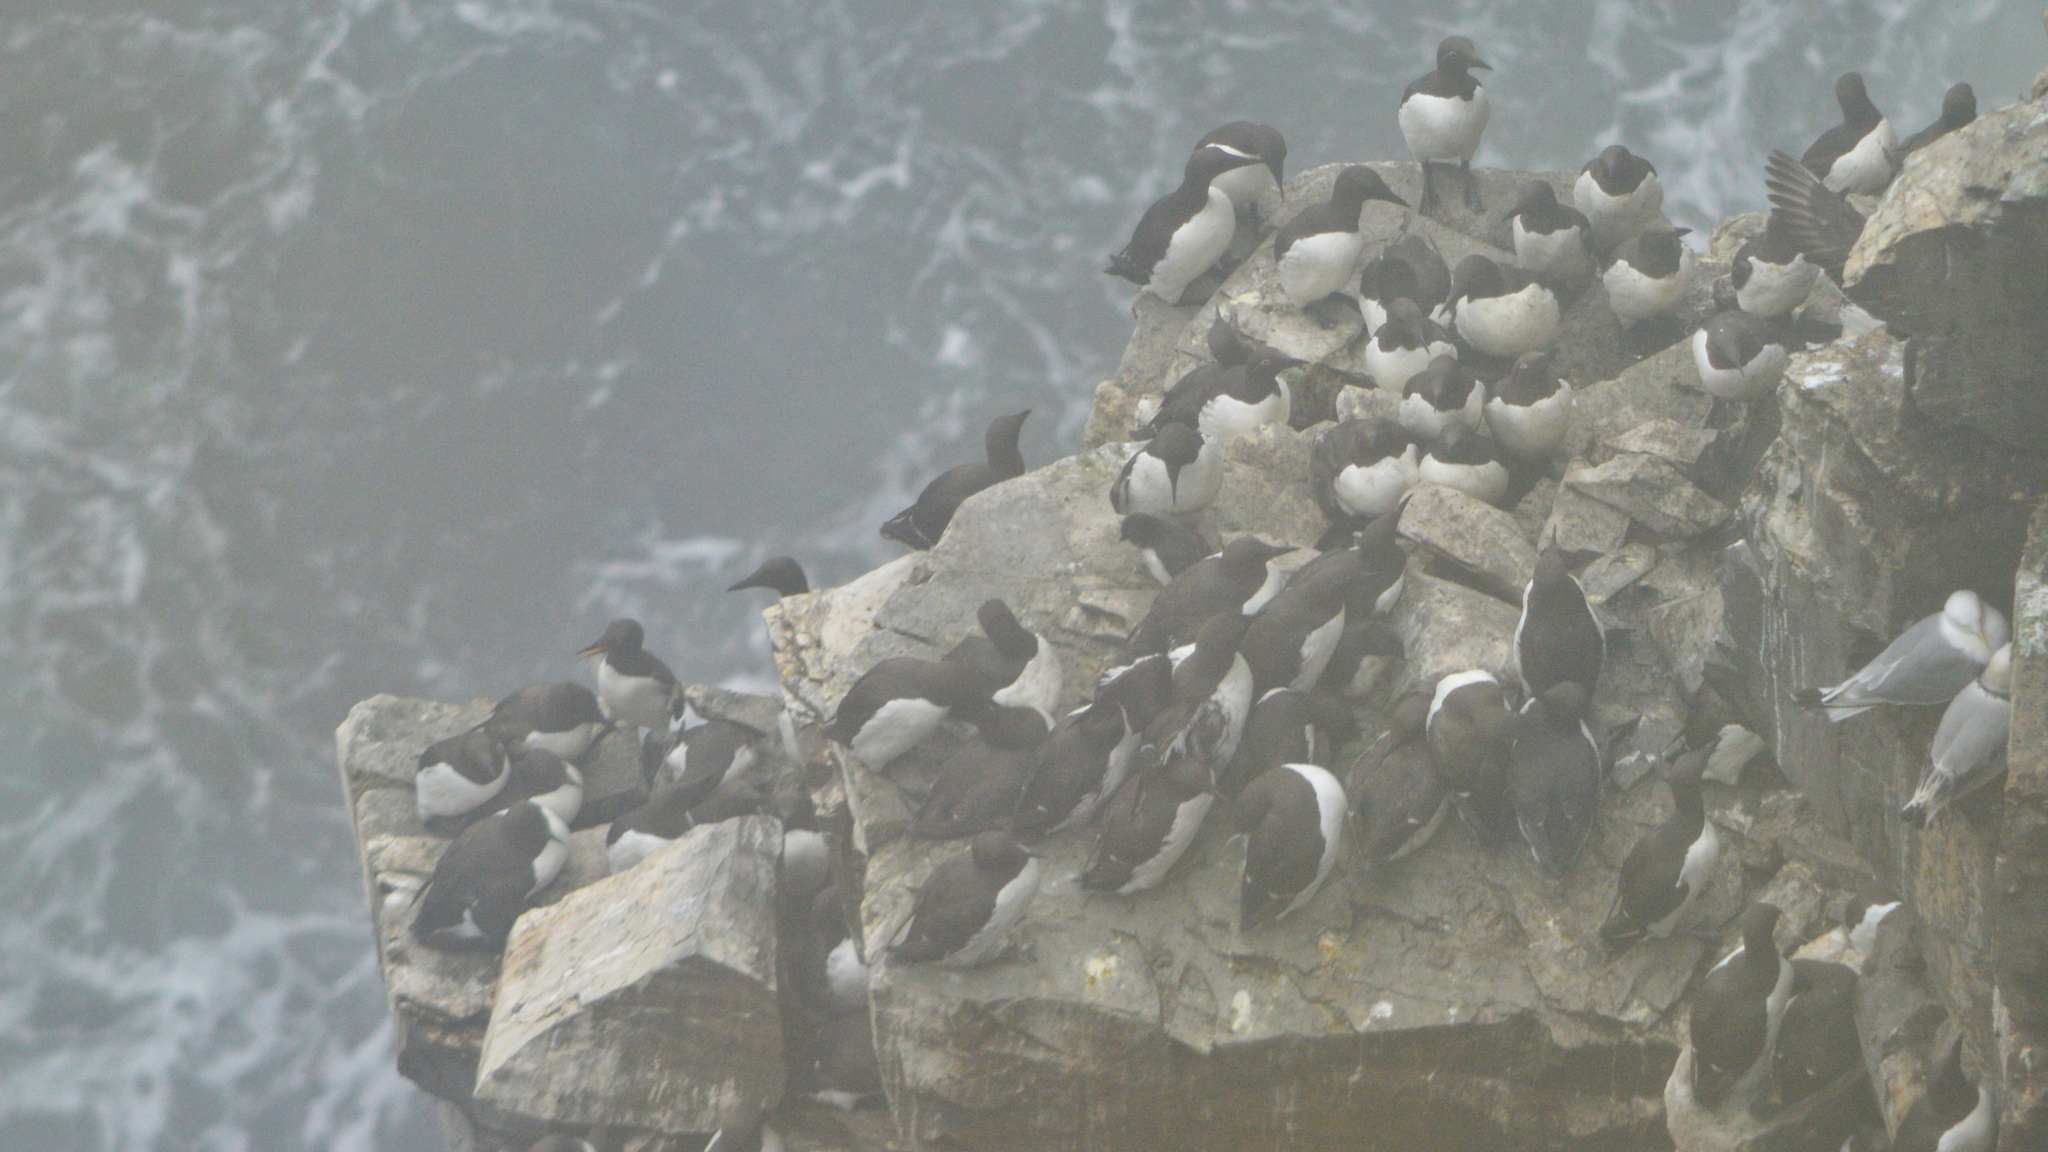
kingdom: Animalia
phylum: Chordata
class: Aves
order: Charadriiformes
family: Alcidae
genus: Uria
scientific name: Uria aalge
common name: Common murre
